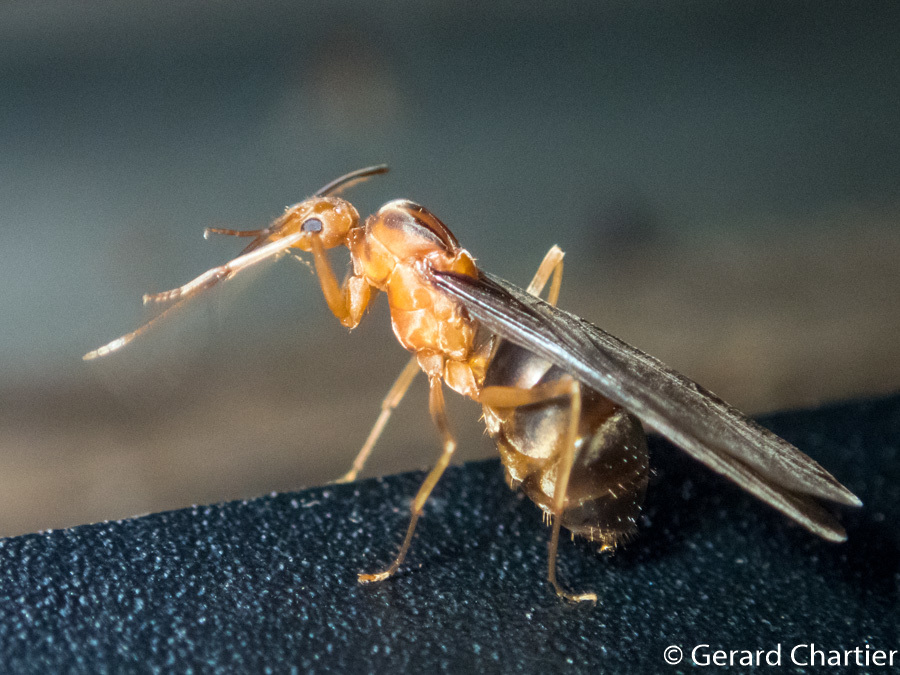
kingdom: Animalia
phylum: Arthropoda
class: Insecta
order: Hymenoptera
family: Formicidae
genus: Anoplolepis
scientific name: Anoplolepis gracilipes
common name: Ant
